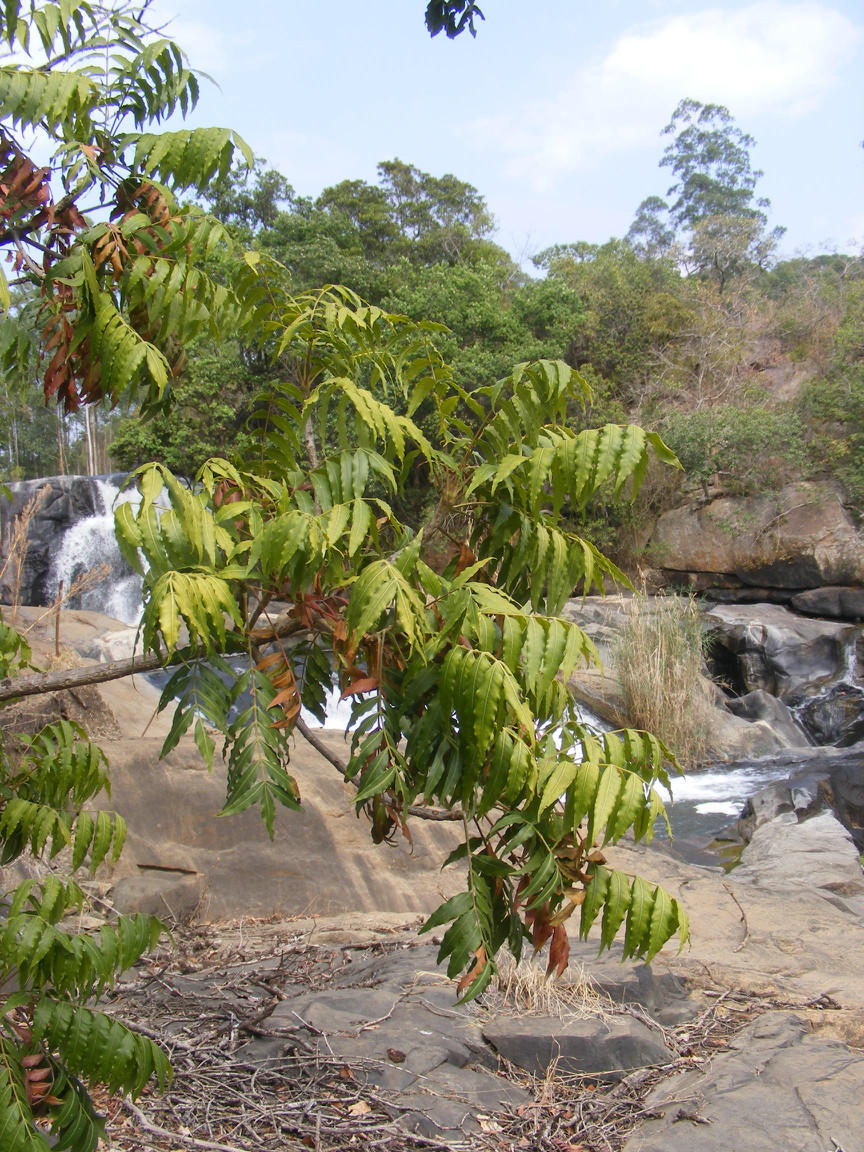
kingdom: Plantae
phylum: Tracheophyta
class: Magnoliopsida
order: Sapindales
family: Anacardiaceae
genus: Harpephyllum
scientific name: Harpephyllum caffrum
